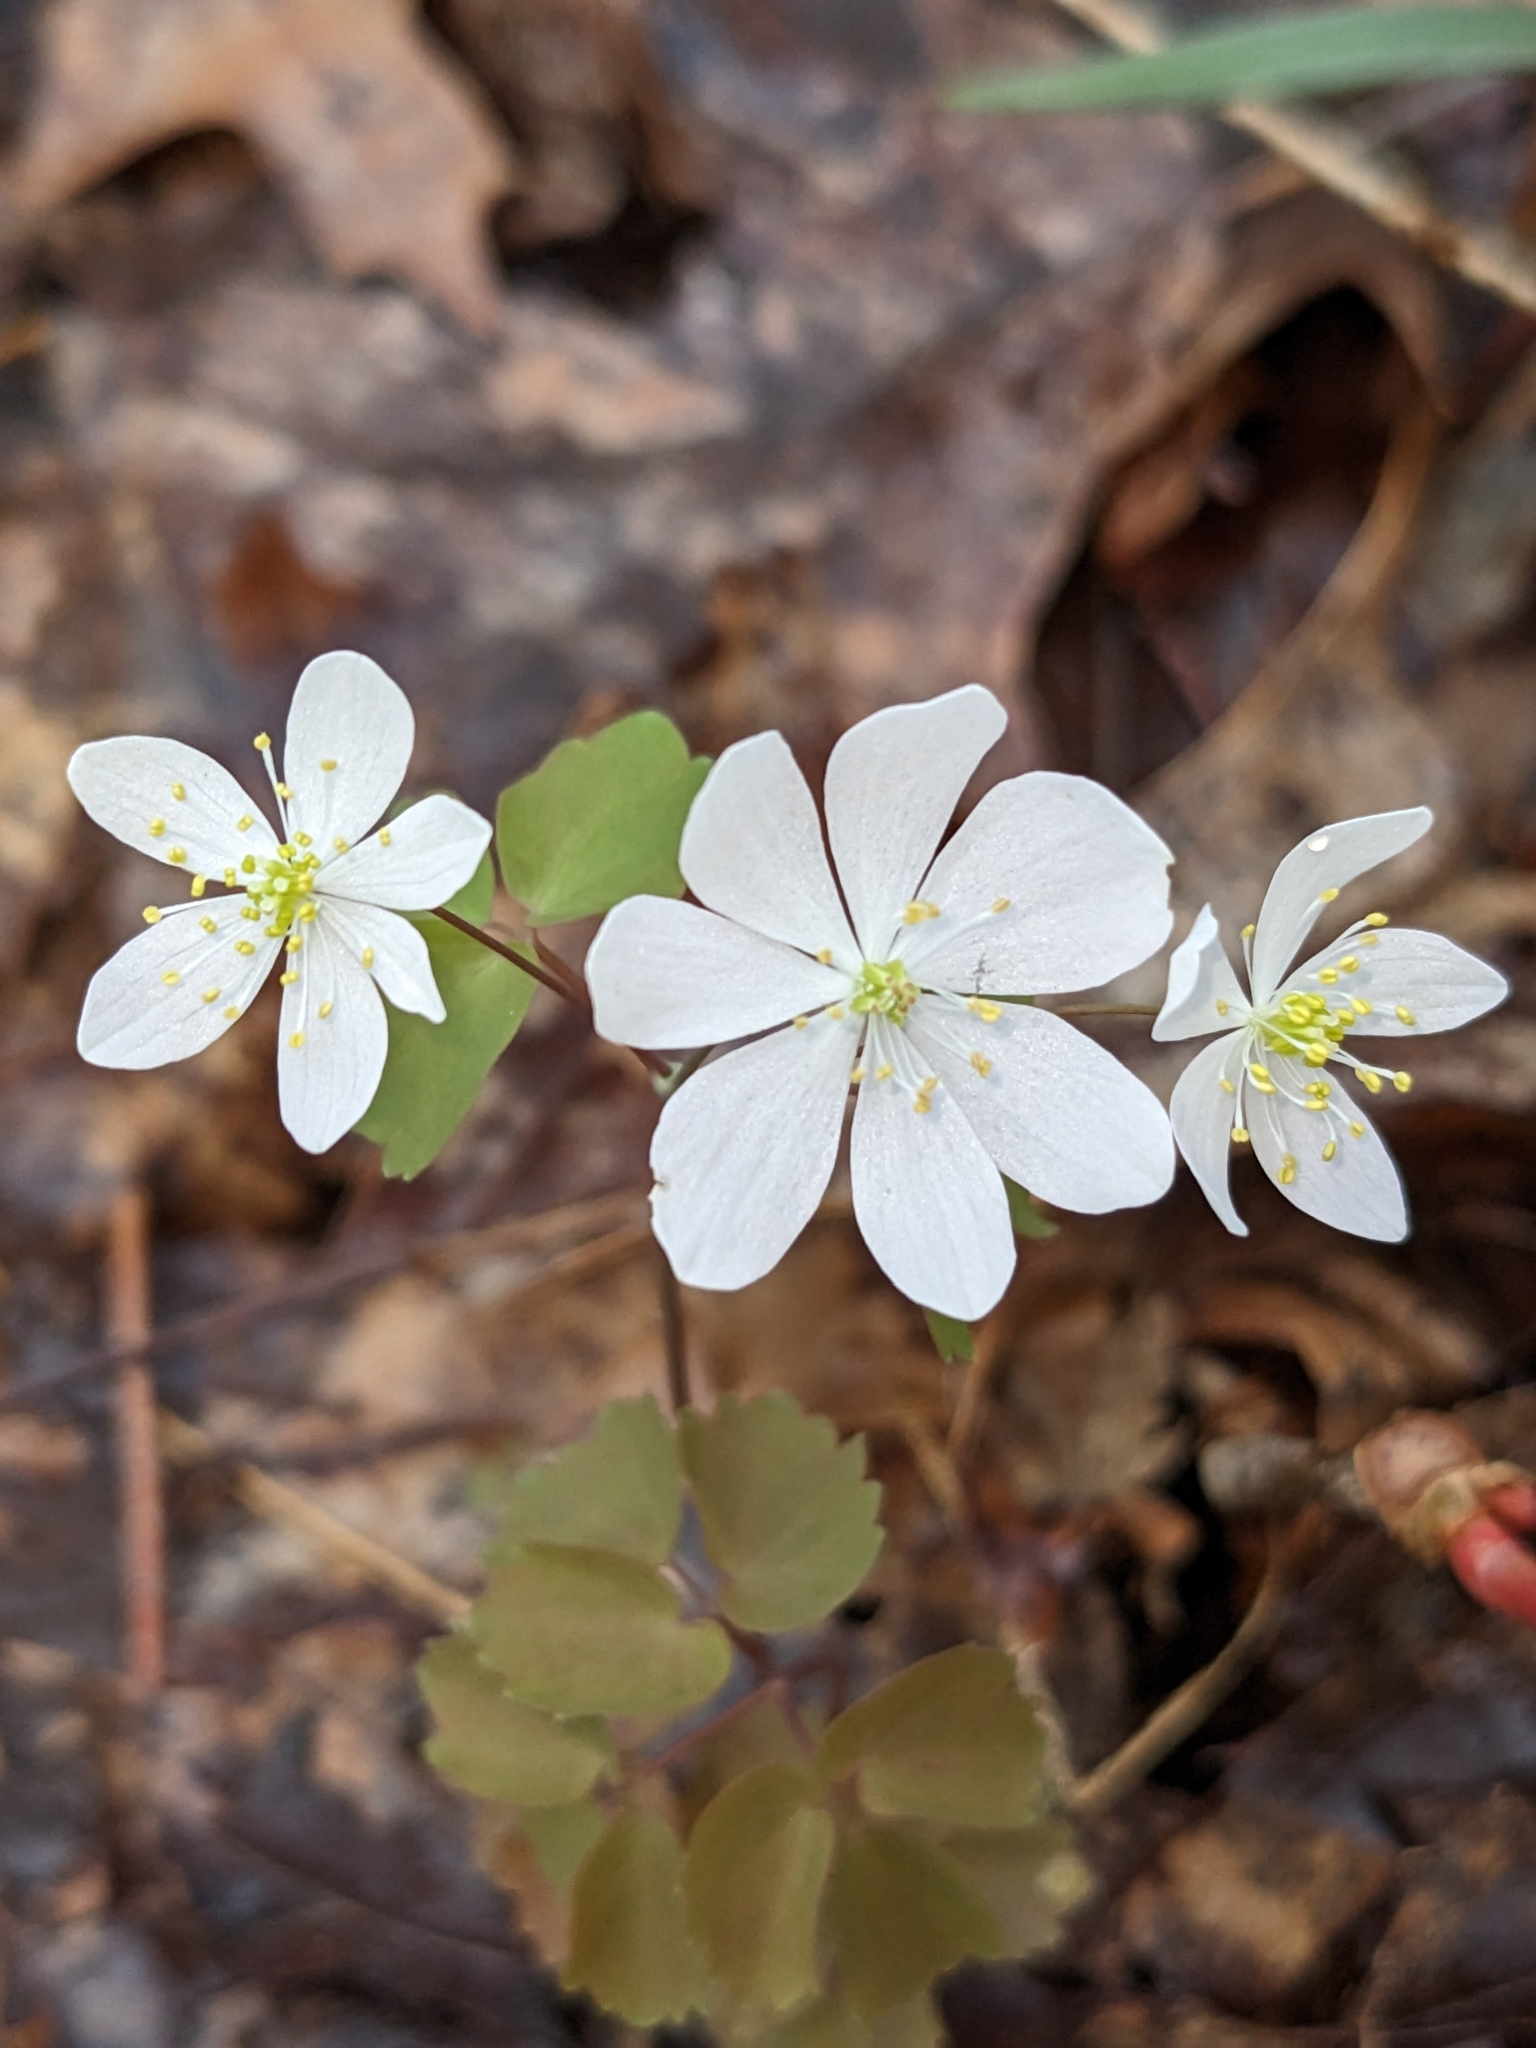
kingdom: Plantae
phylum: Tracheophyta
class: Magnoliopsida
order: Ranunculales
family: Ranunculaceae
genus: Thalictrum
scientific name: Thalictrum thalictroides
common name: Rue-anemone
